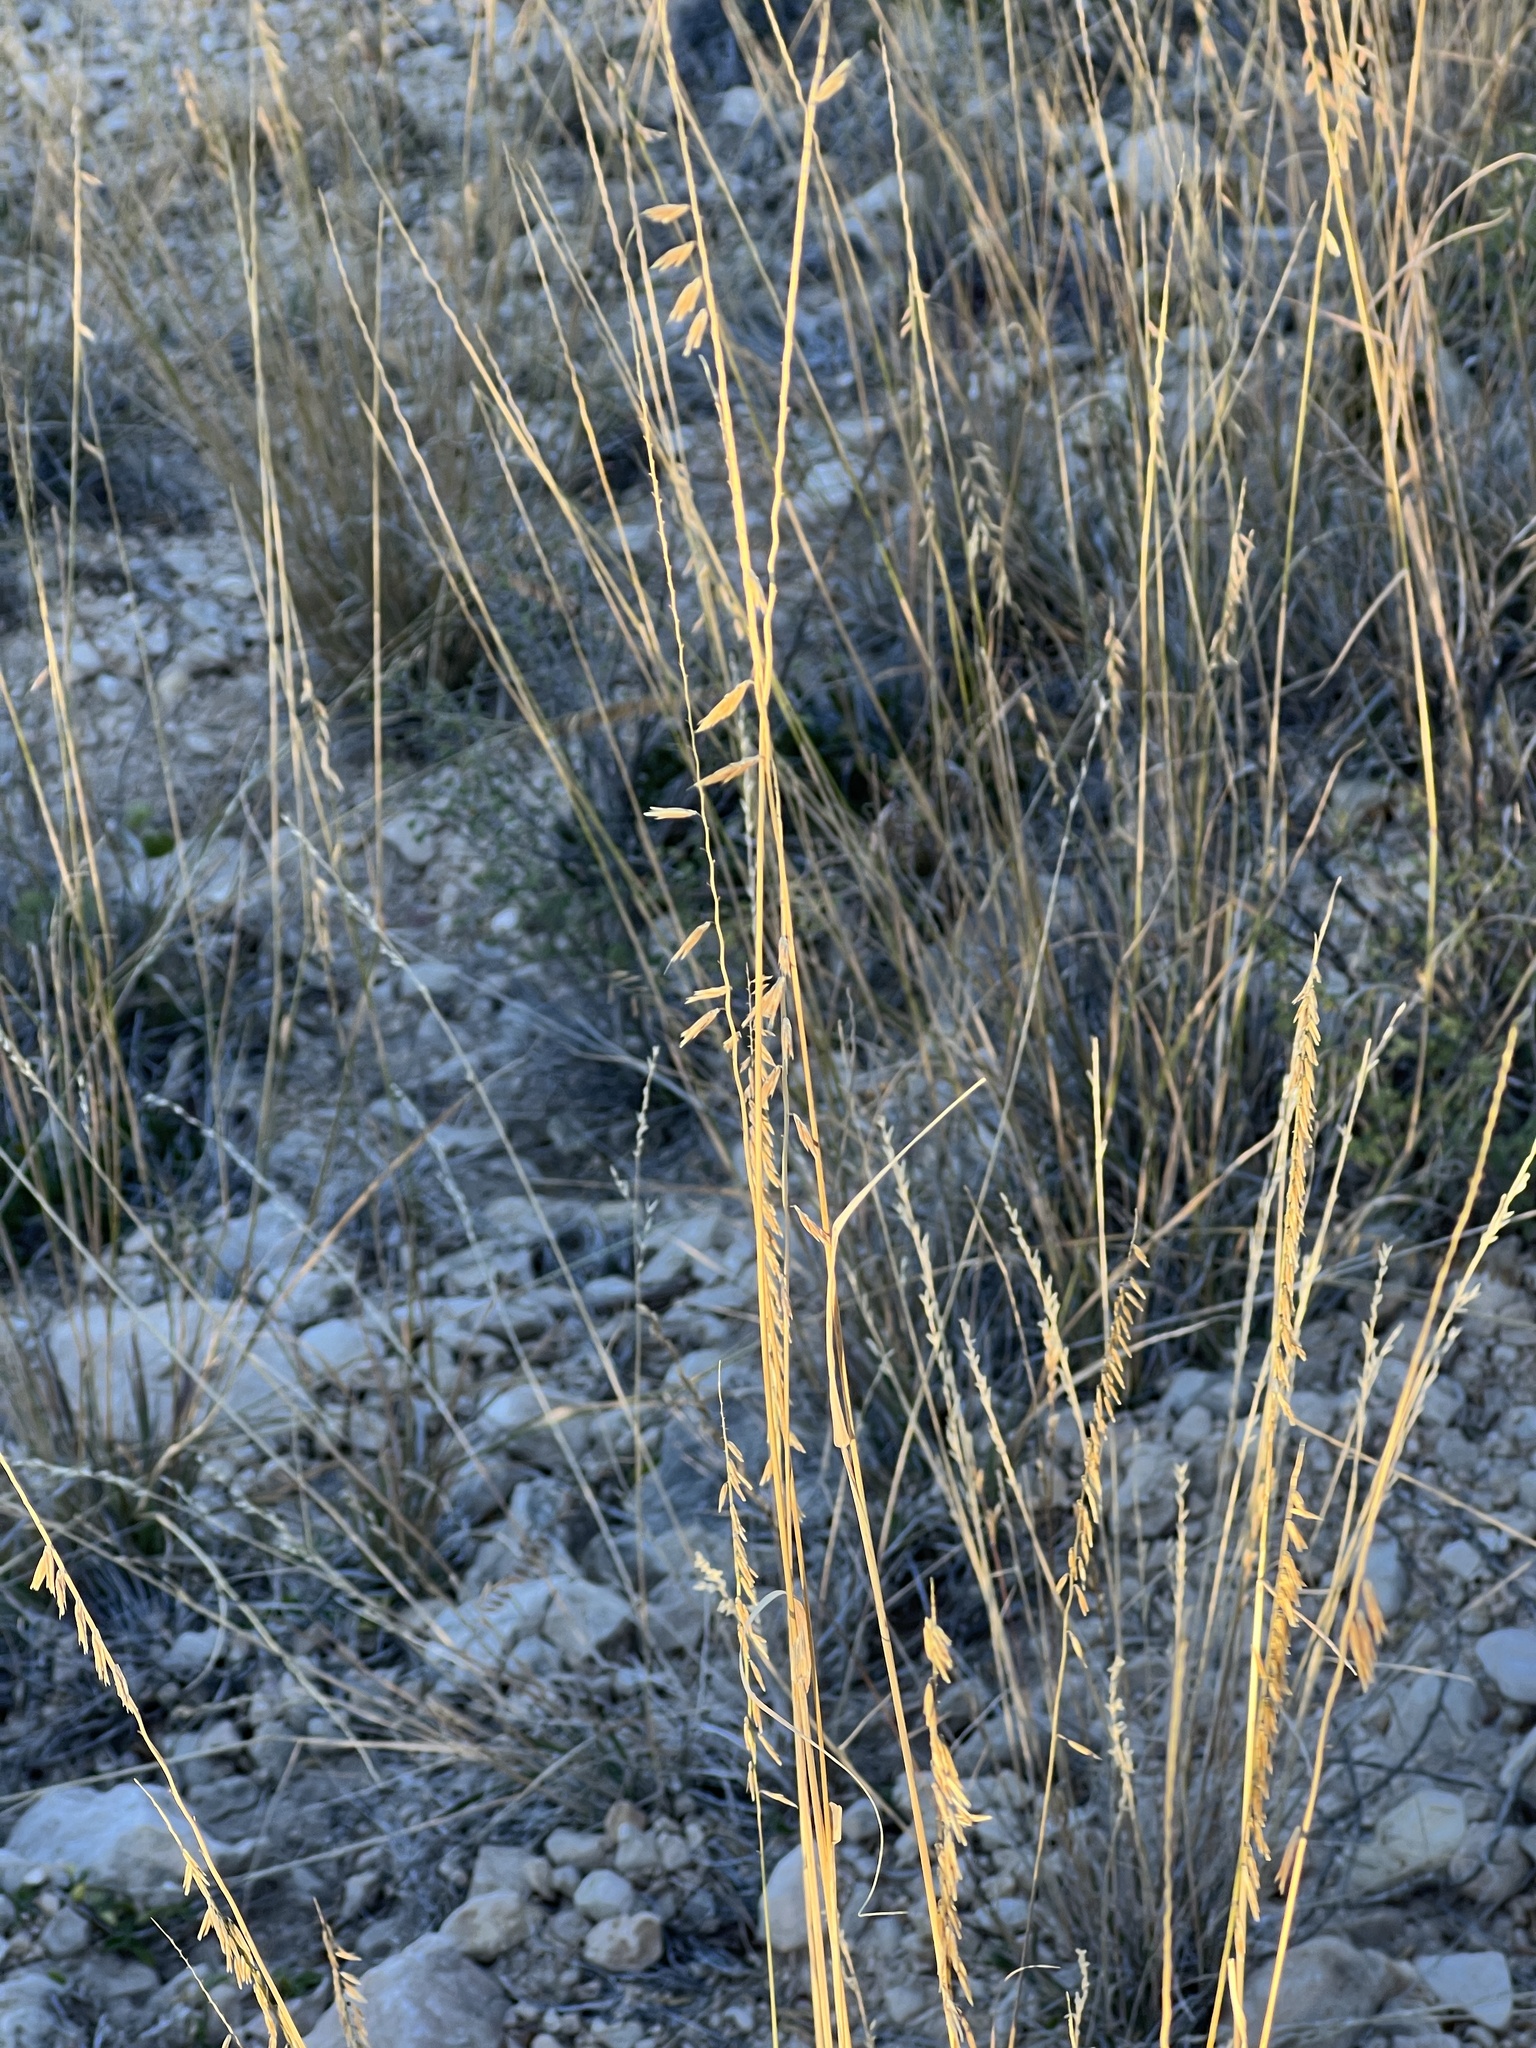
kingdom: Plantae
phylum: Tracheophyta
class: Liliopsida
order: Poales
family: Poaceae
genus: Bouteloua
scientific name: Bouteloua curtipendula
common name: Side-oats grama
